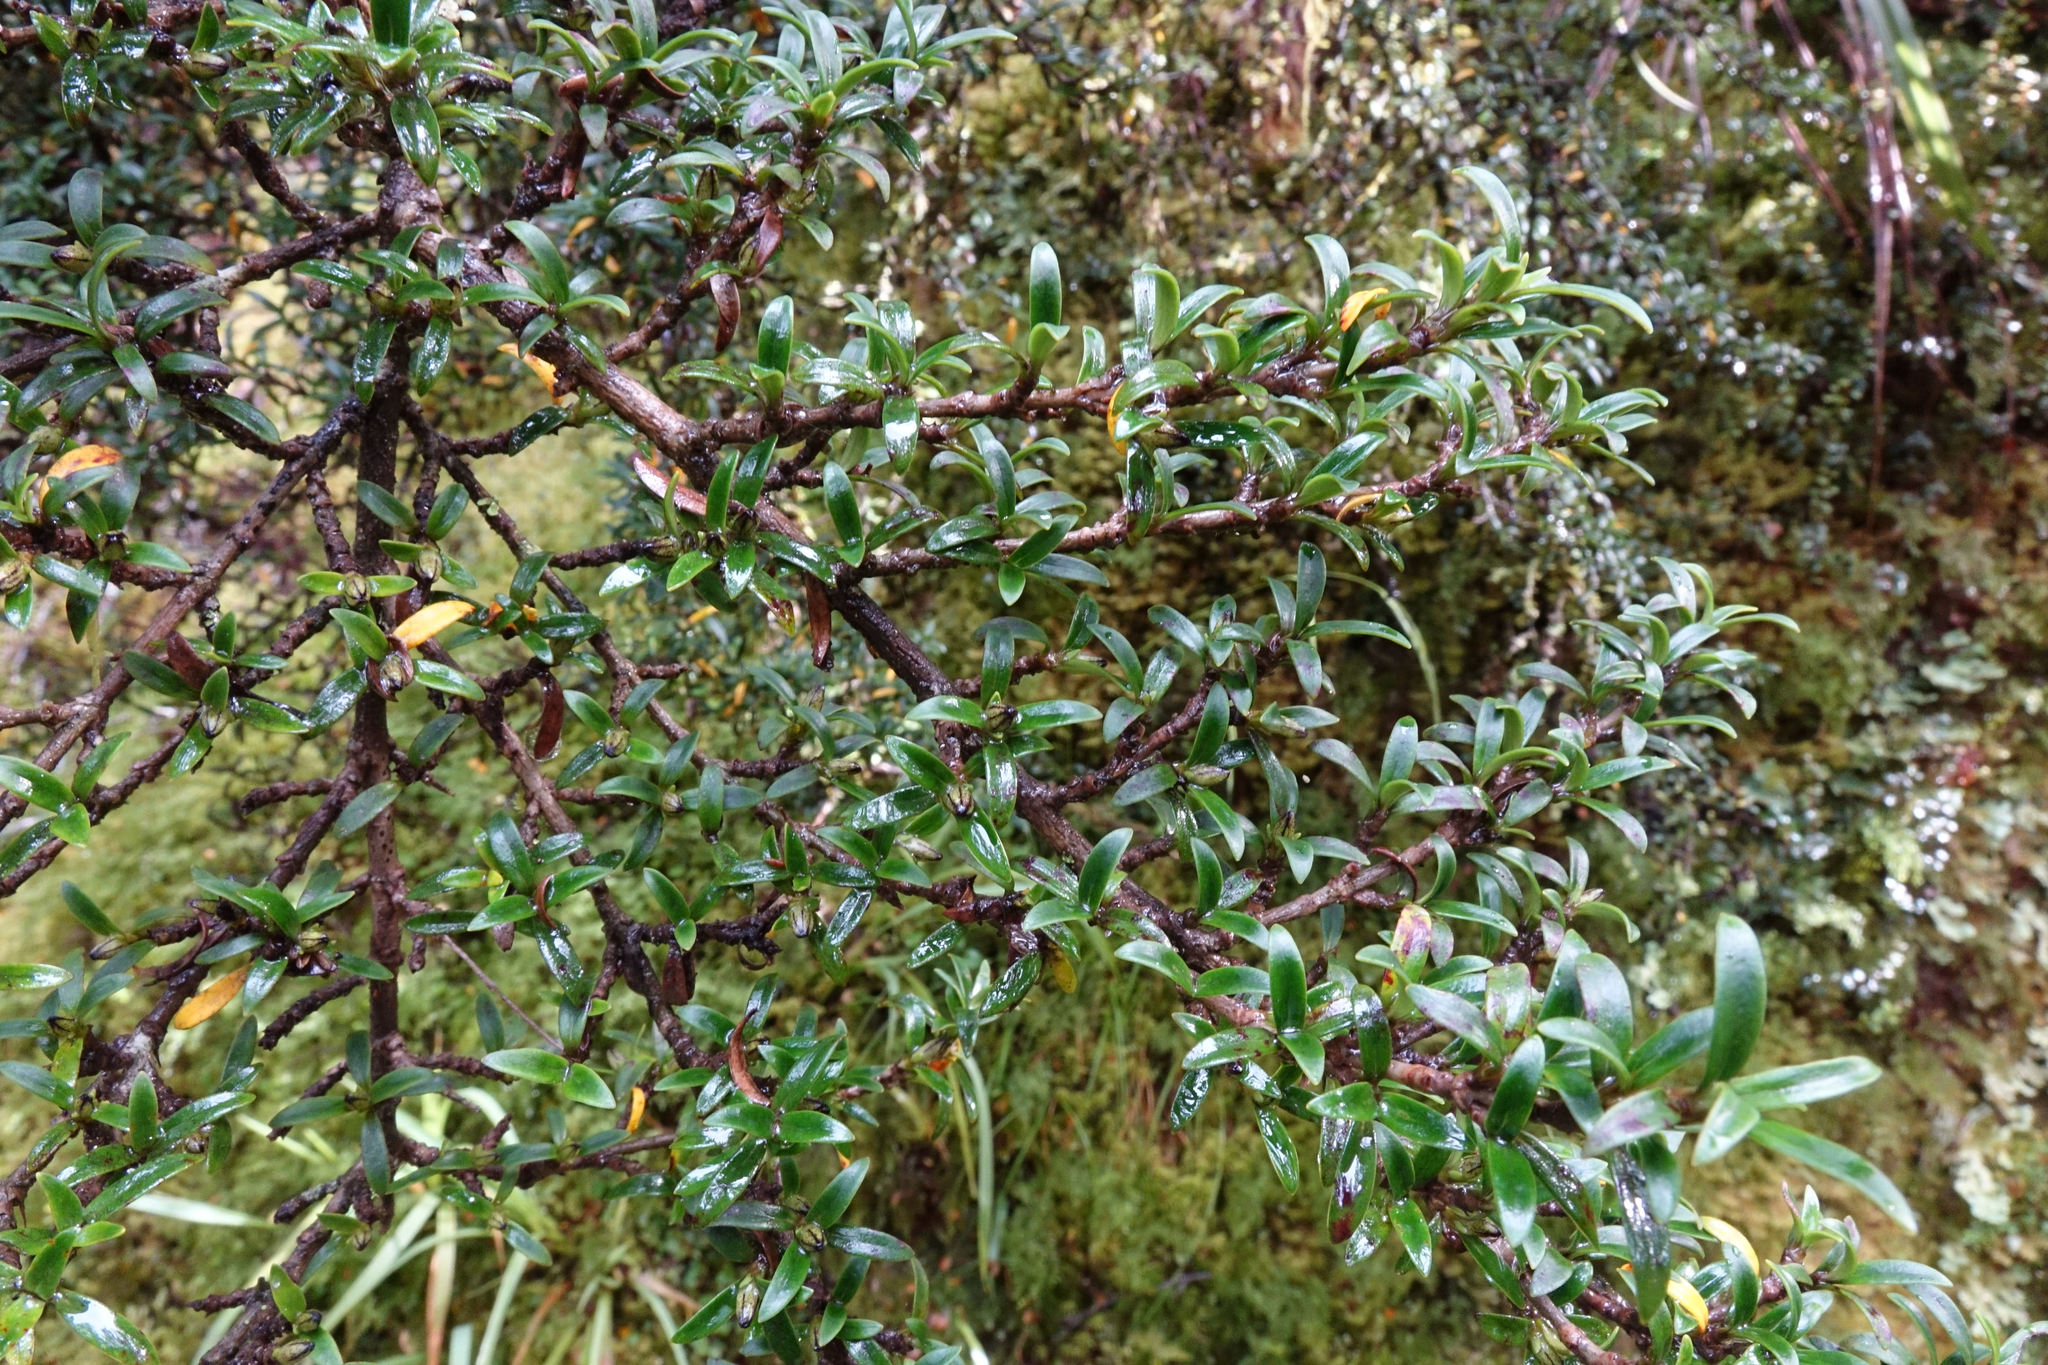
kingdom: Plantae
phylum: Tracheophyta
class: Magnoliopsida
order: Gentianales
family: Rubiaceae
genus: Coprosma
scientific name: Coprosma pseudocuneata
